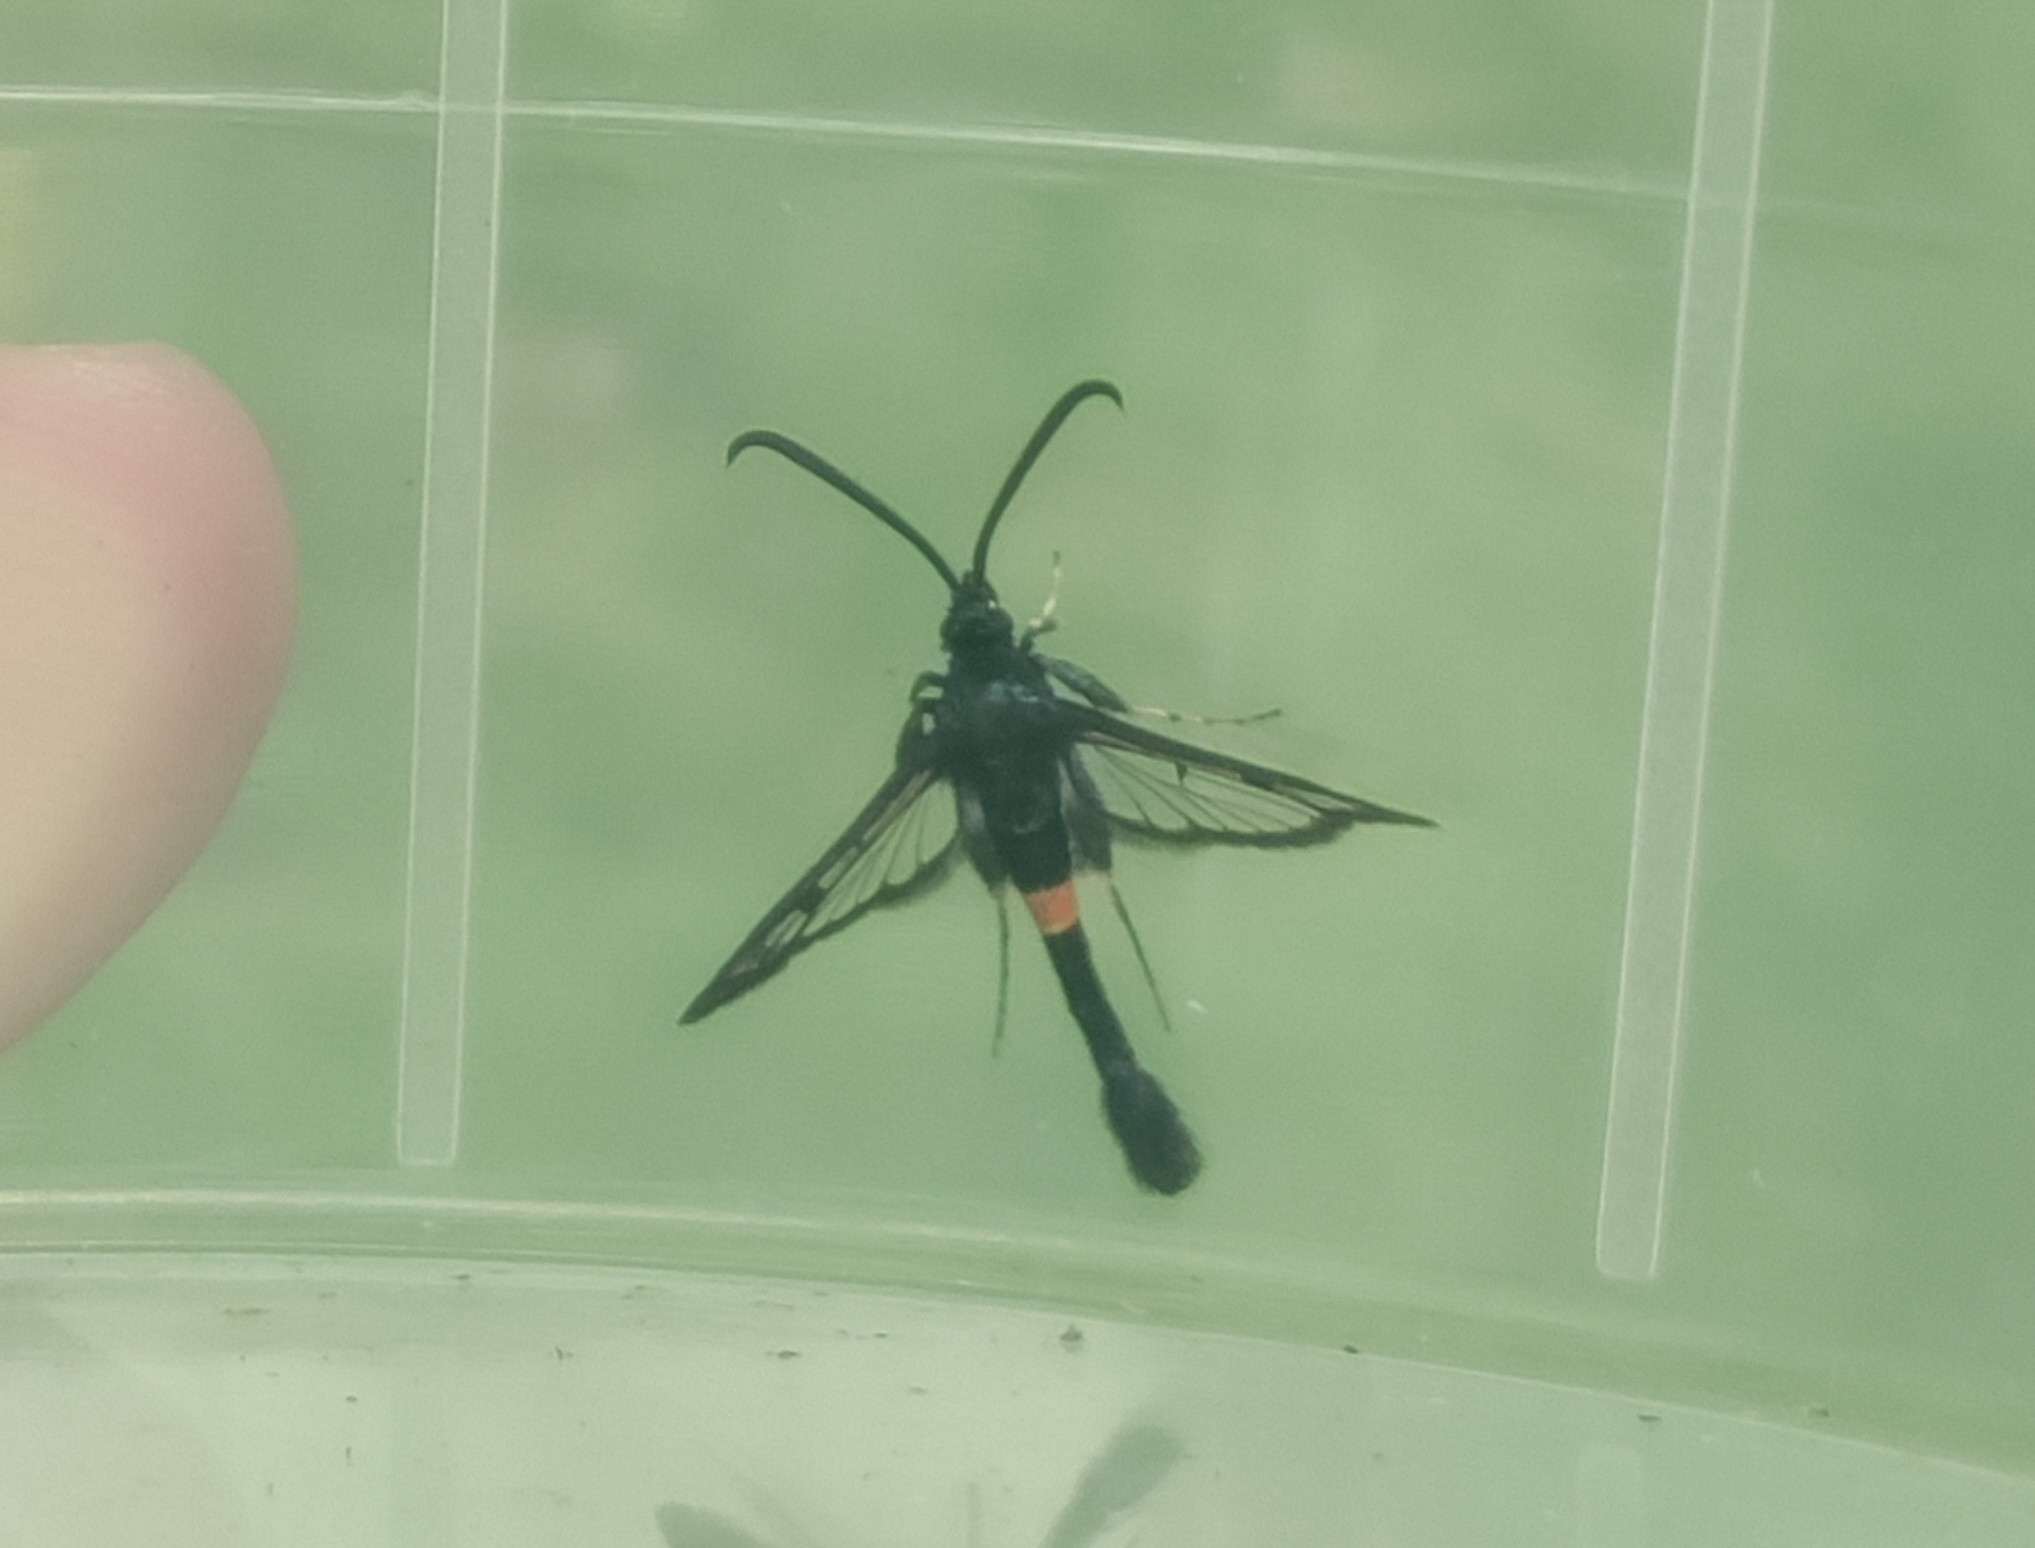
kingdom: Animalia
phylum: Arthropoda
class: Insecta
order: Lepidoptera
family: Sesiidae
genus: Synanthedon
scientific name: Synanthedon myopaeformis
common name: Red-belted clearwing
